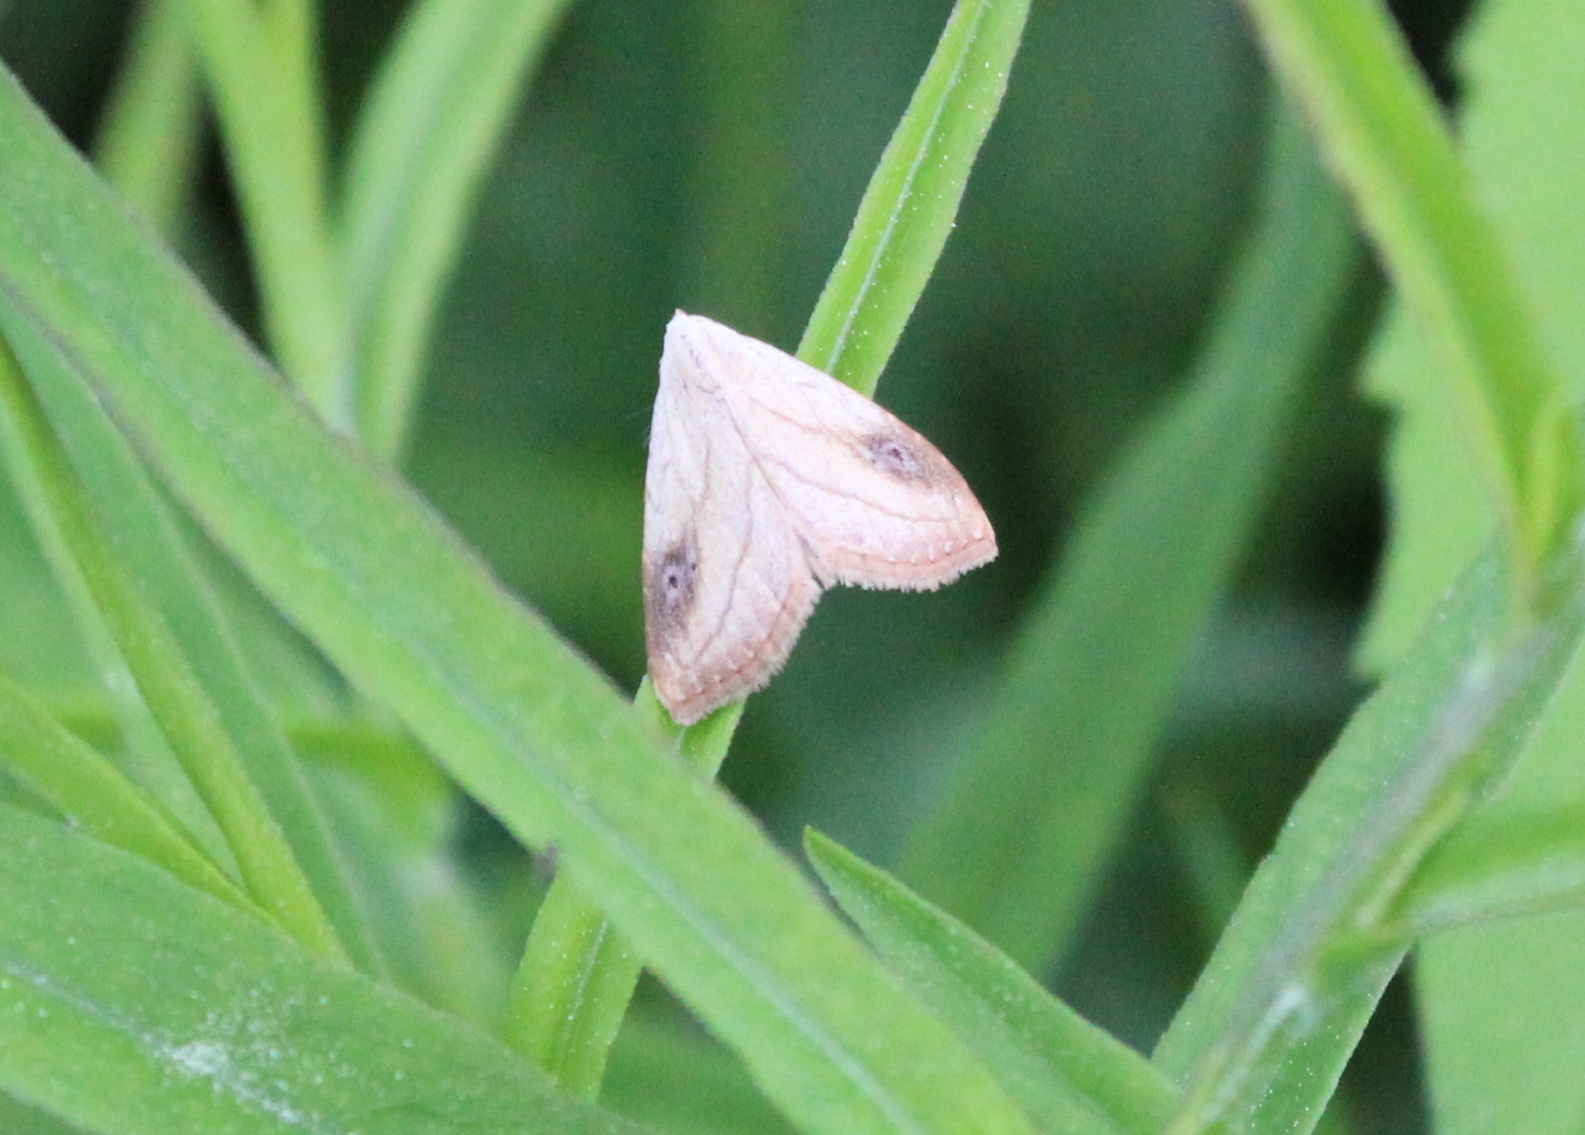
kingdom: Animalia
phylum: Arthropoda
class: Insecta
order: Lepidoptera
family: Erebidae
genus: Rivula
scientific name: Rivula propinqualis
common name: Spotted grass moth
